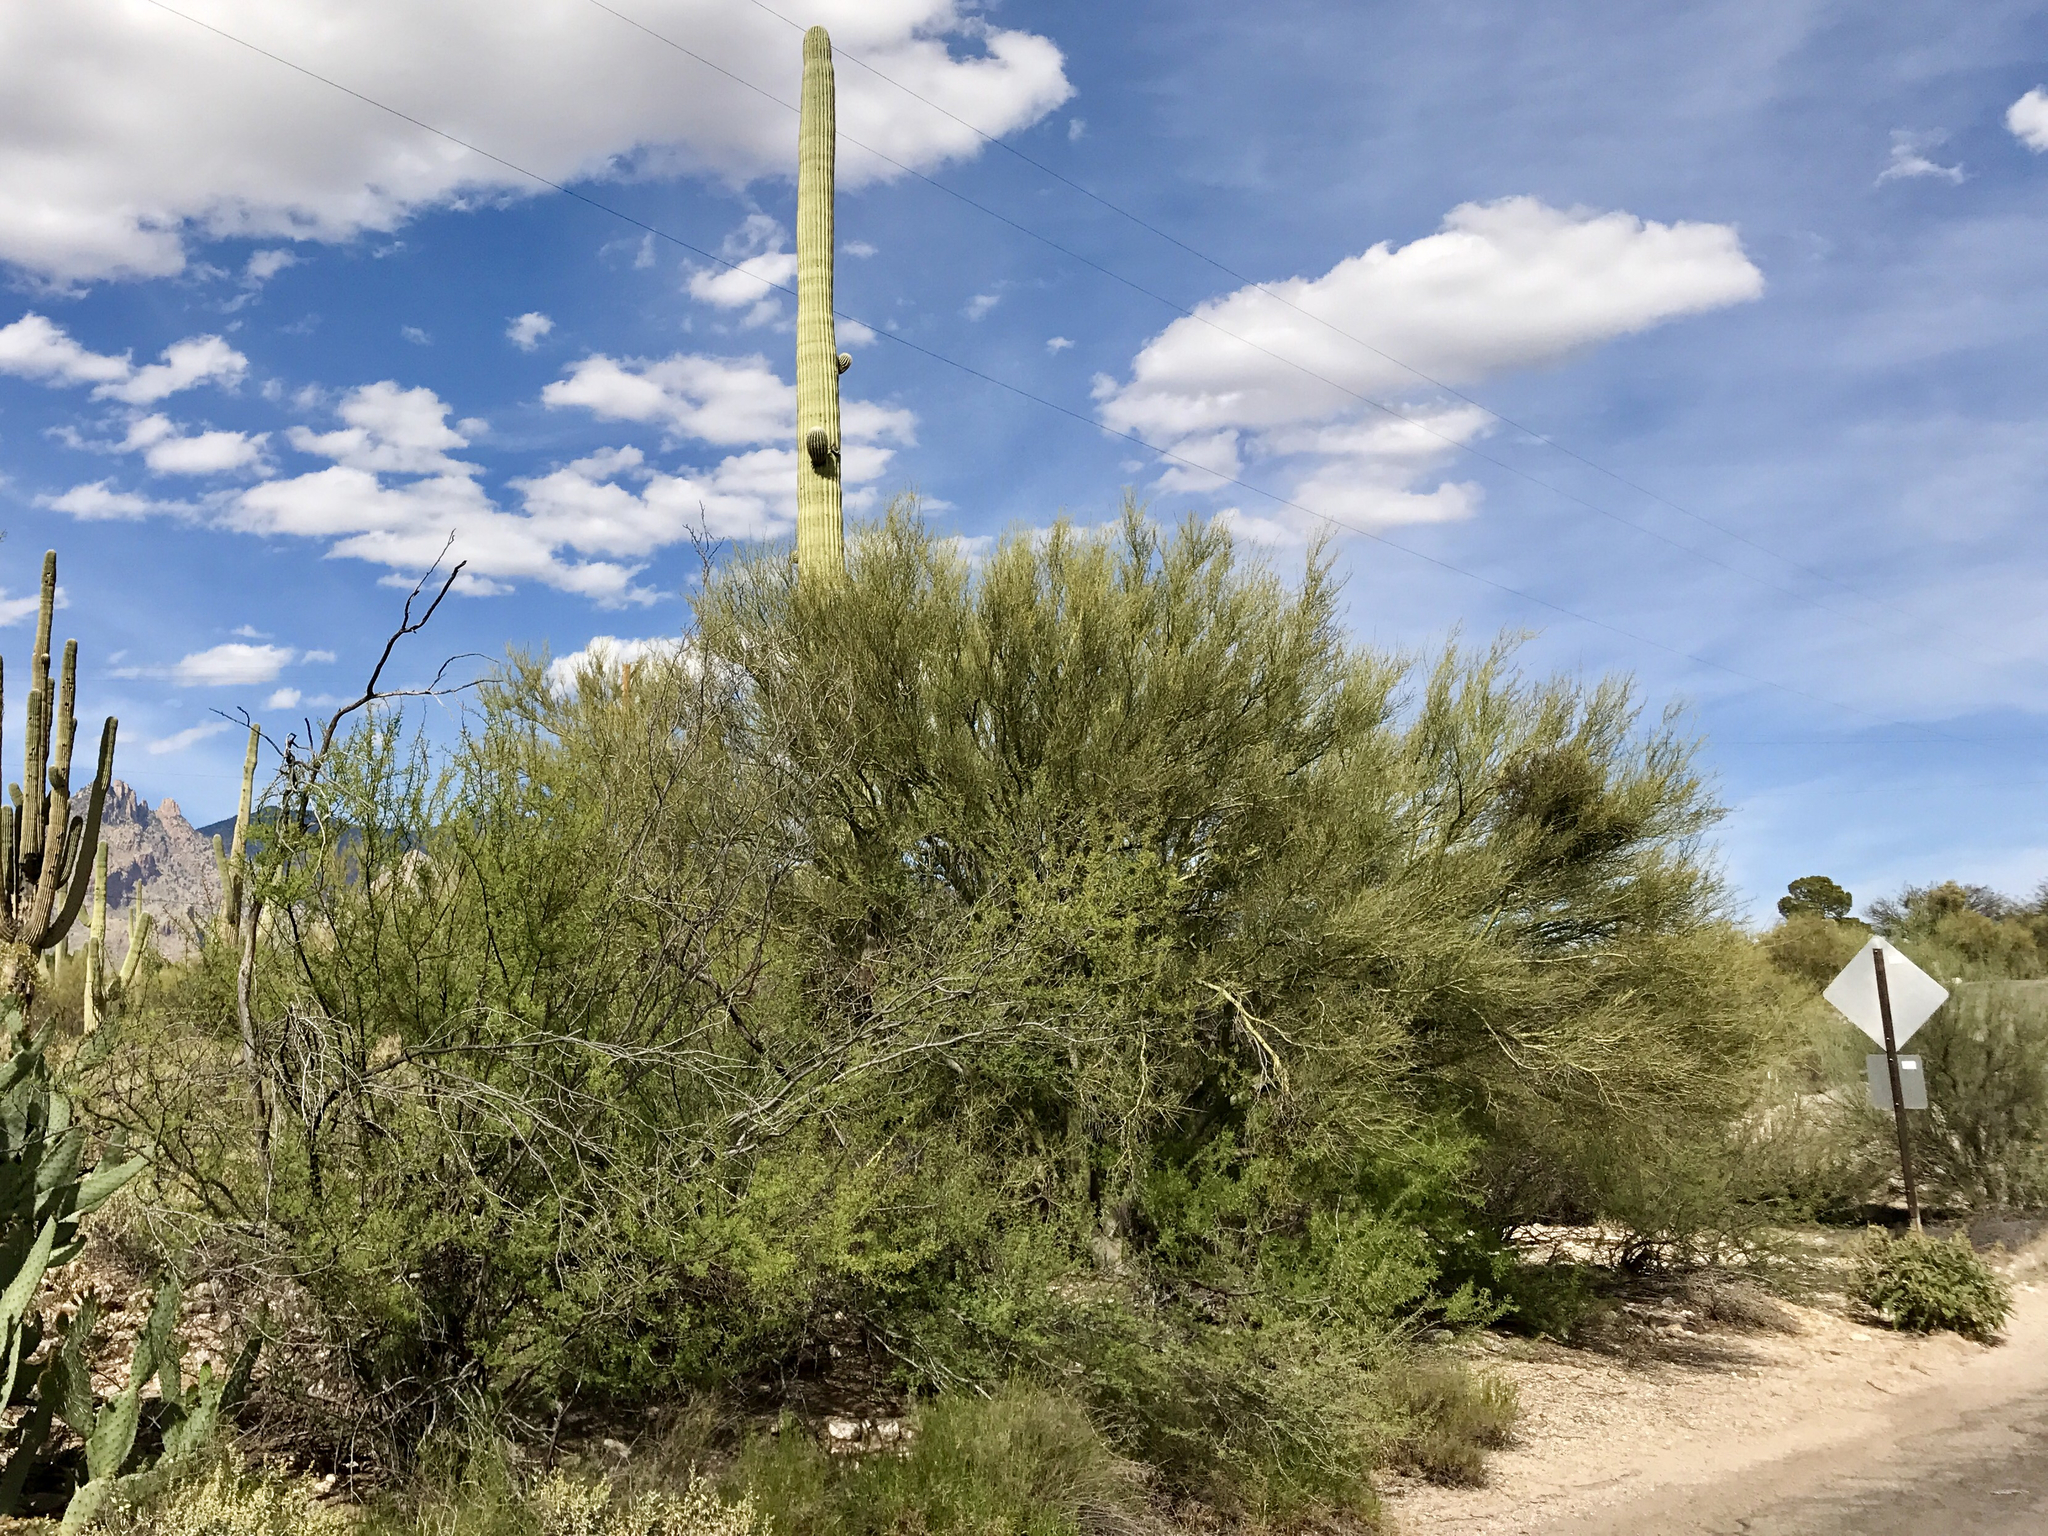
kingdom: Plantae
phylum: Tracheophyta
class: Magnoliopsida
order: Fabales
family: Fabaceae
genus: Parkinsonia
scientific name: Parkinsonia microphylla
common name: Yellow paloverde
